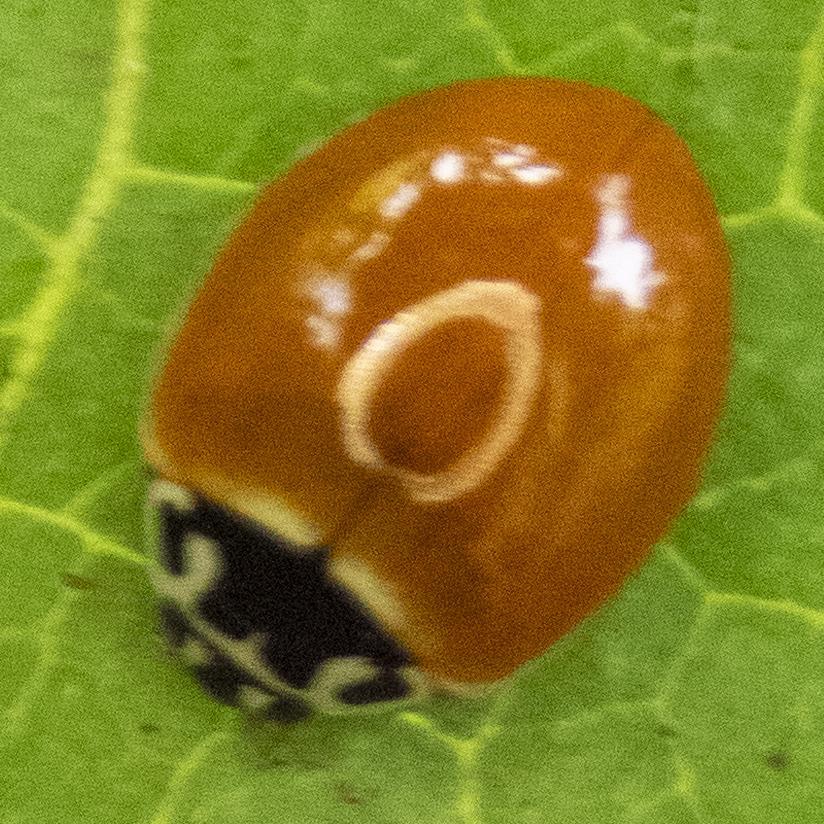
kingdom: Animalia
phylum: Arthropoda
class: Insecta
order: Coleoptera
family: Coccinellidae
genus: Cycloneda
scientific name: Cycloneda munda
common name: Polished lady beetle
